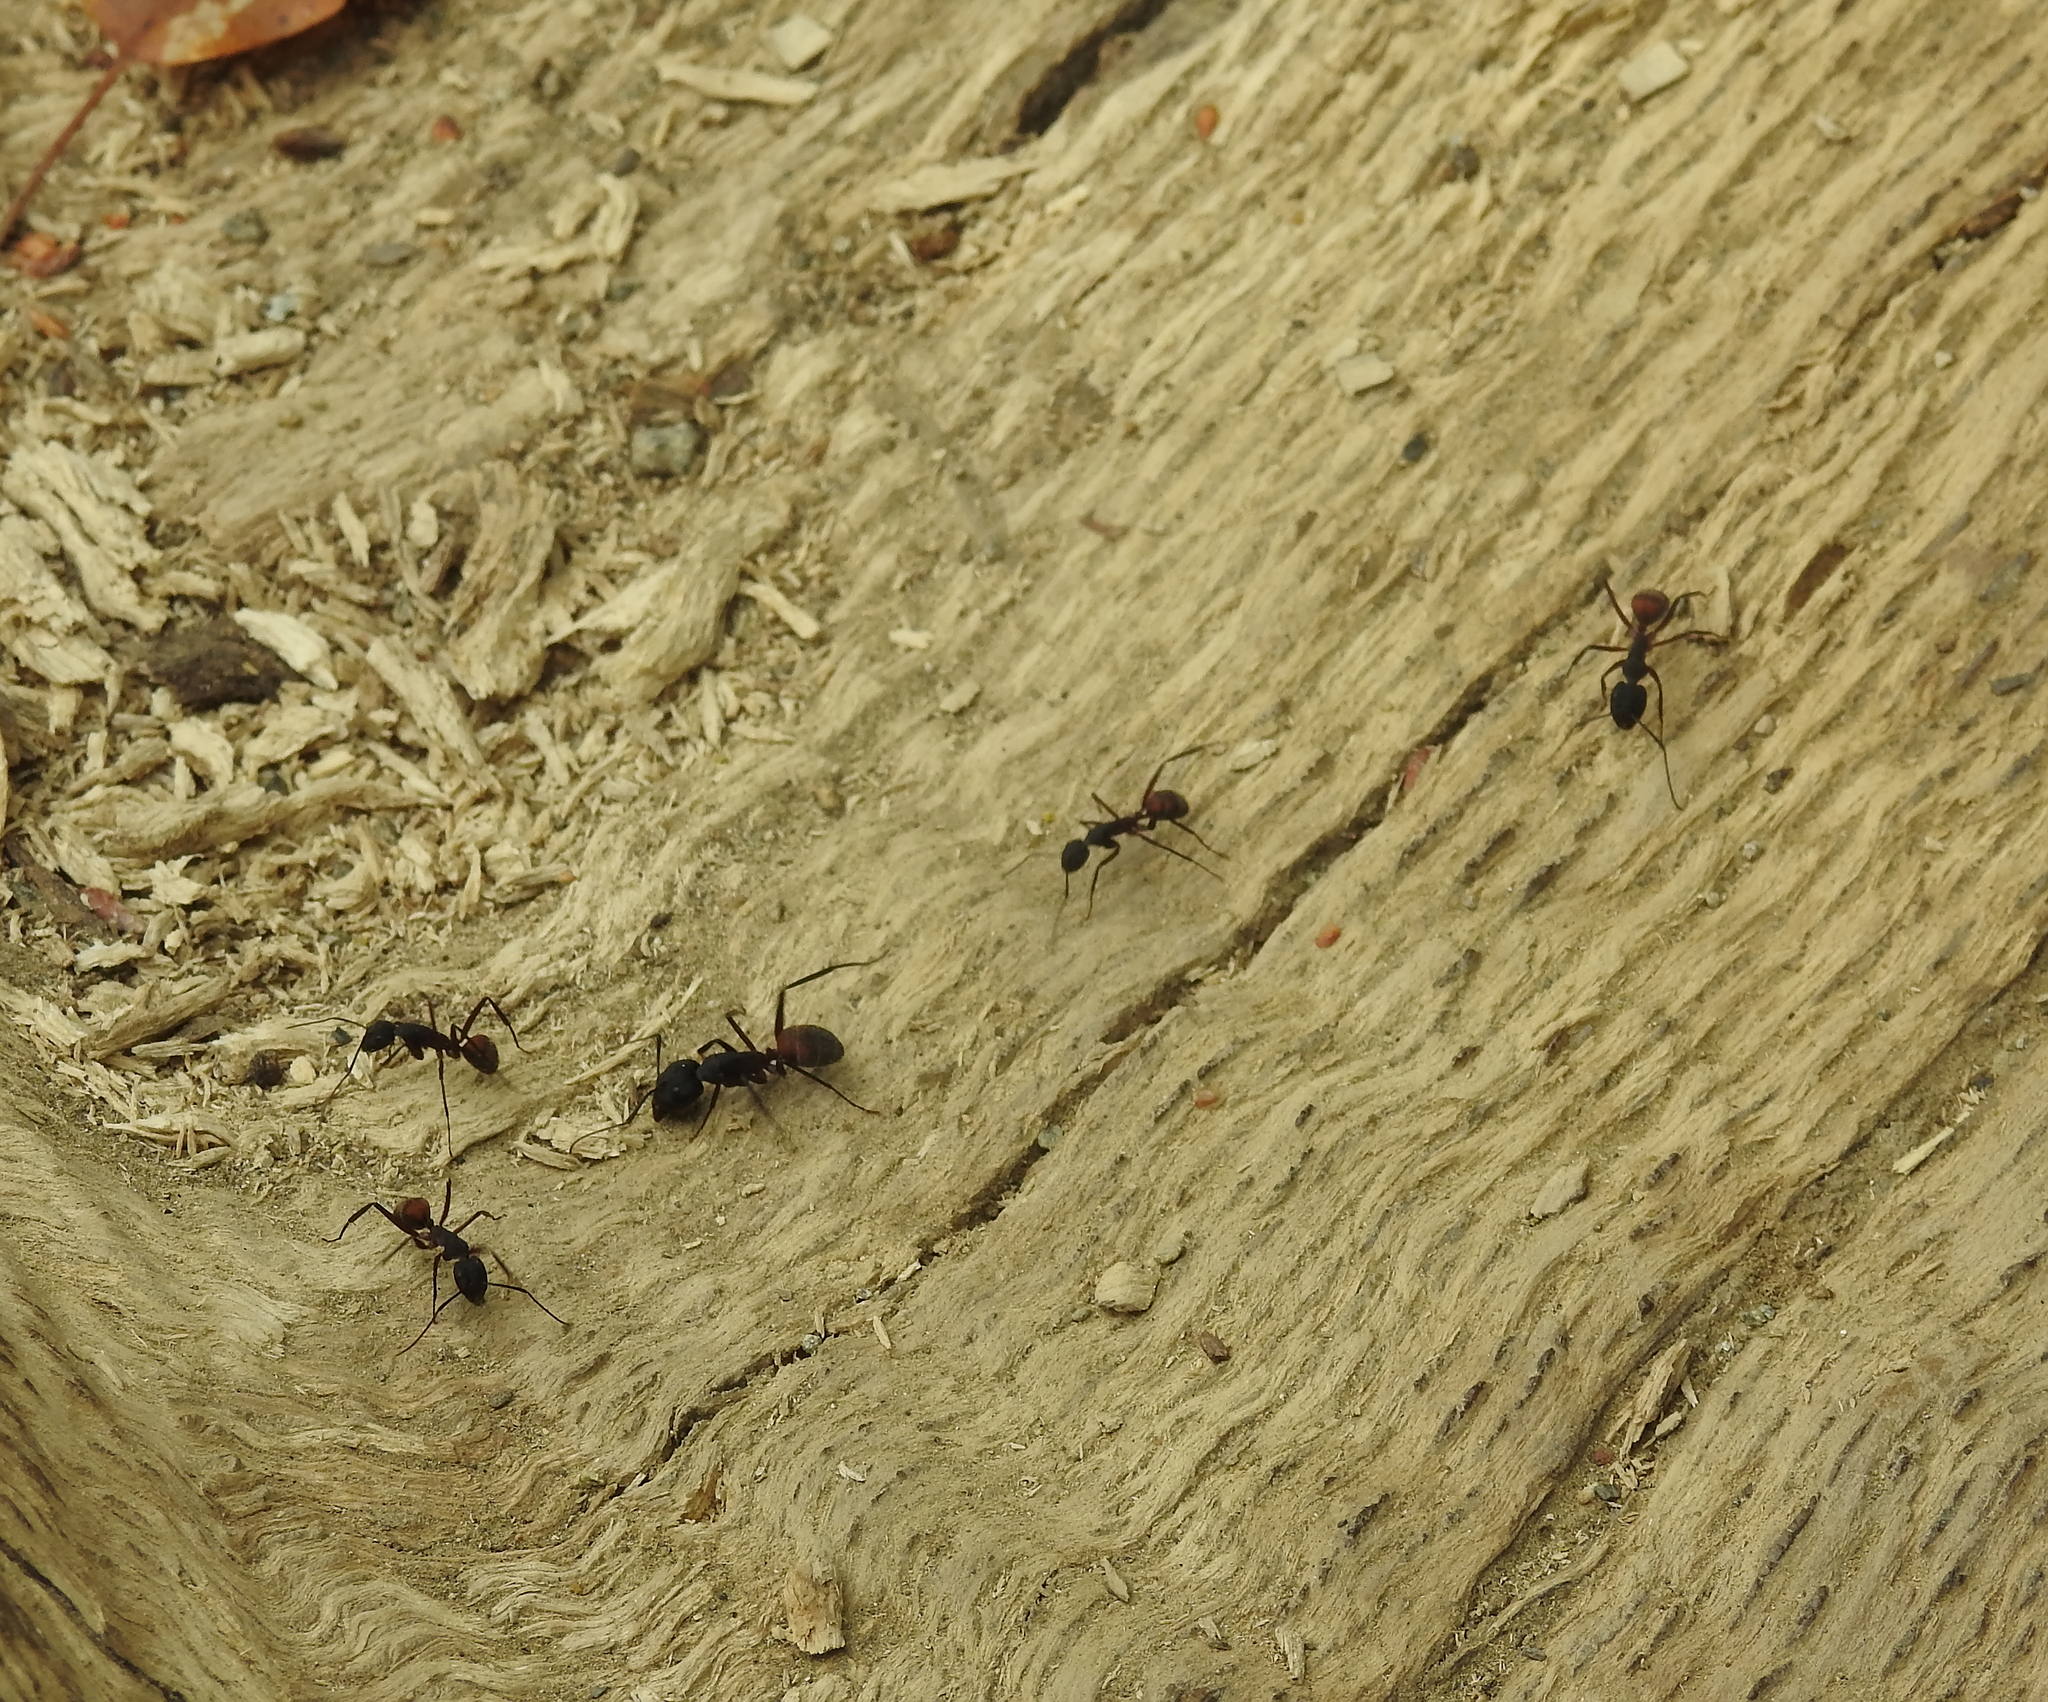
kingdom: Animalia
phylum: Arthropoda
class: Insecta
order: Hymenoptera
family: Formicidae
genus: Camponotus
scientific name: Camponotus cruentatus
